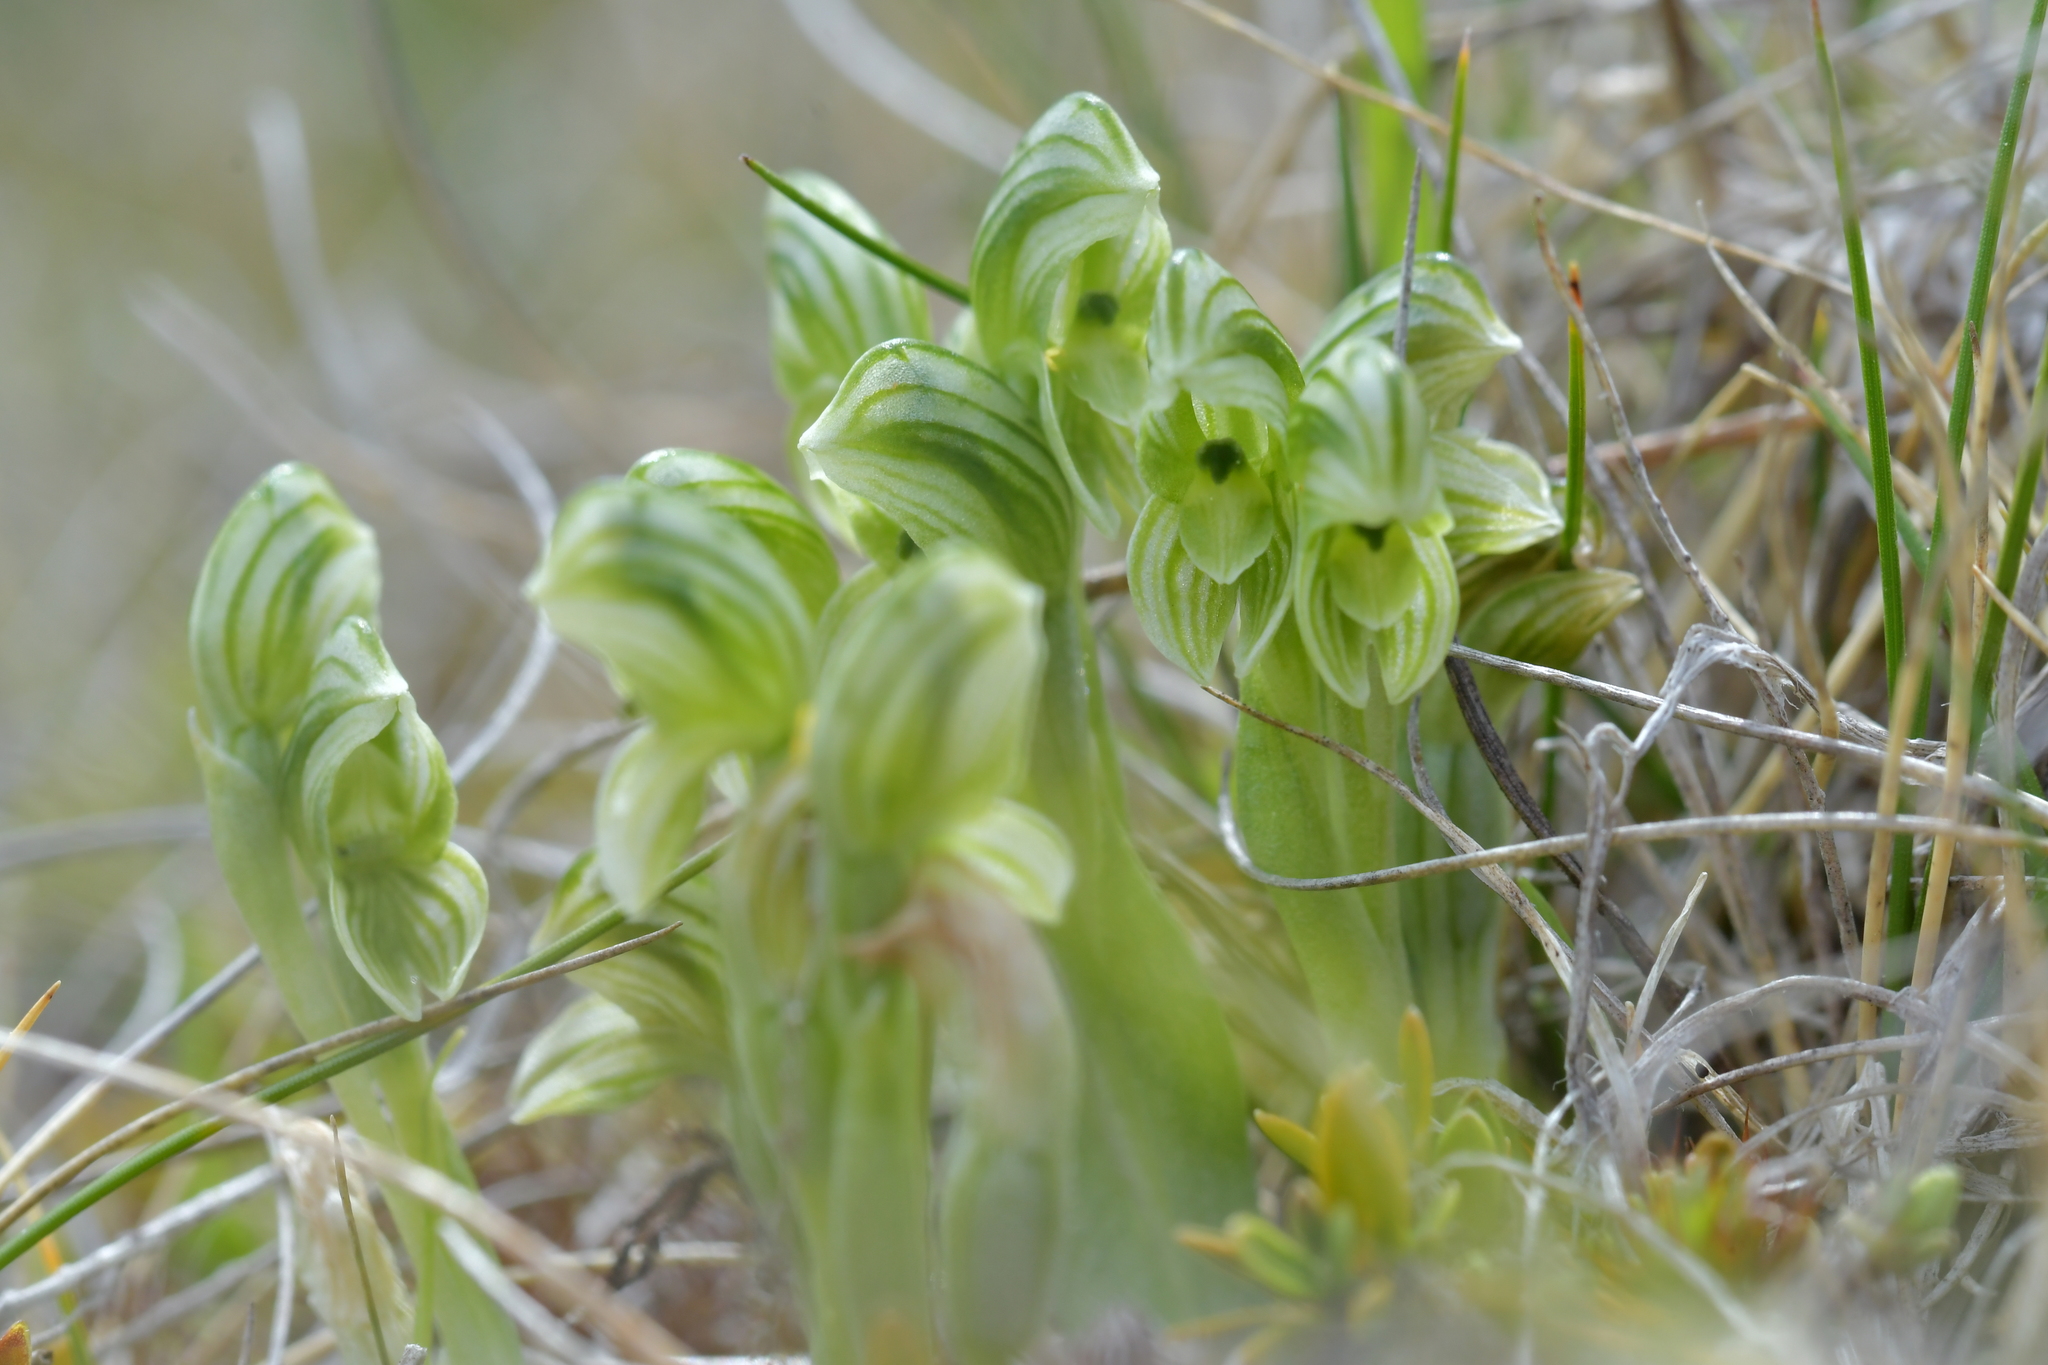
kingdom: Plantae
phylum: Tracheophyta
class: Liliopsida
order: Asparagales
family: Orchidaceae
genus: Pterostylis
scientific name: Pterostylis tanypoda
